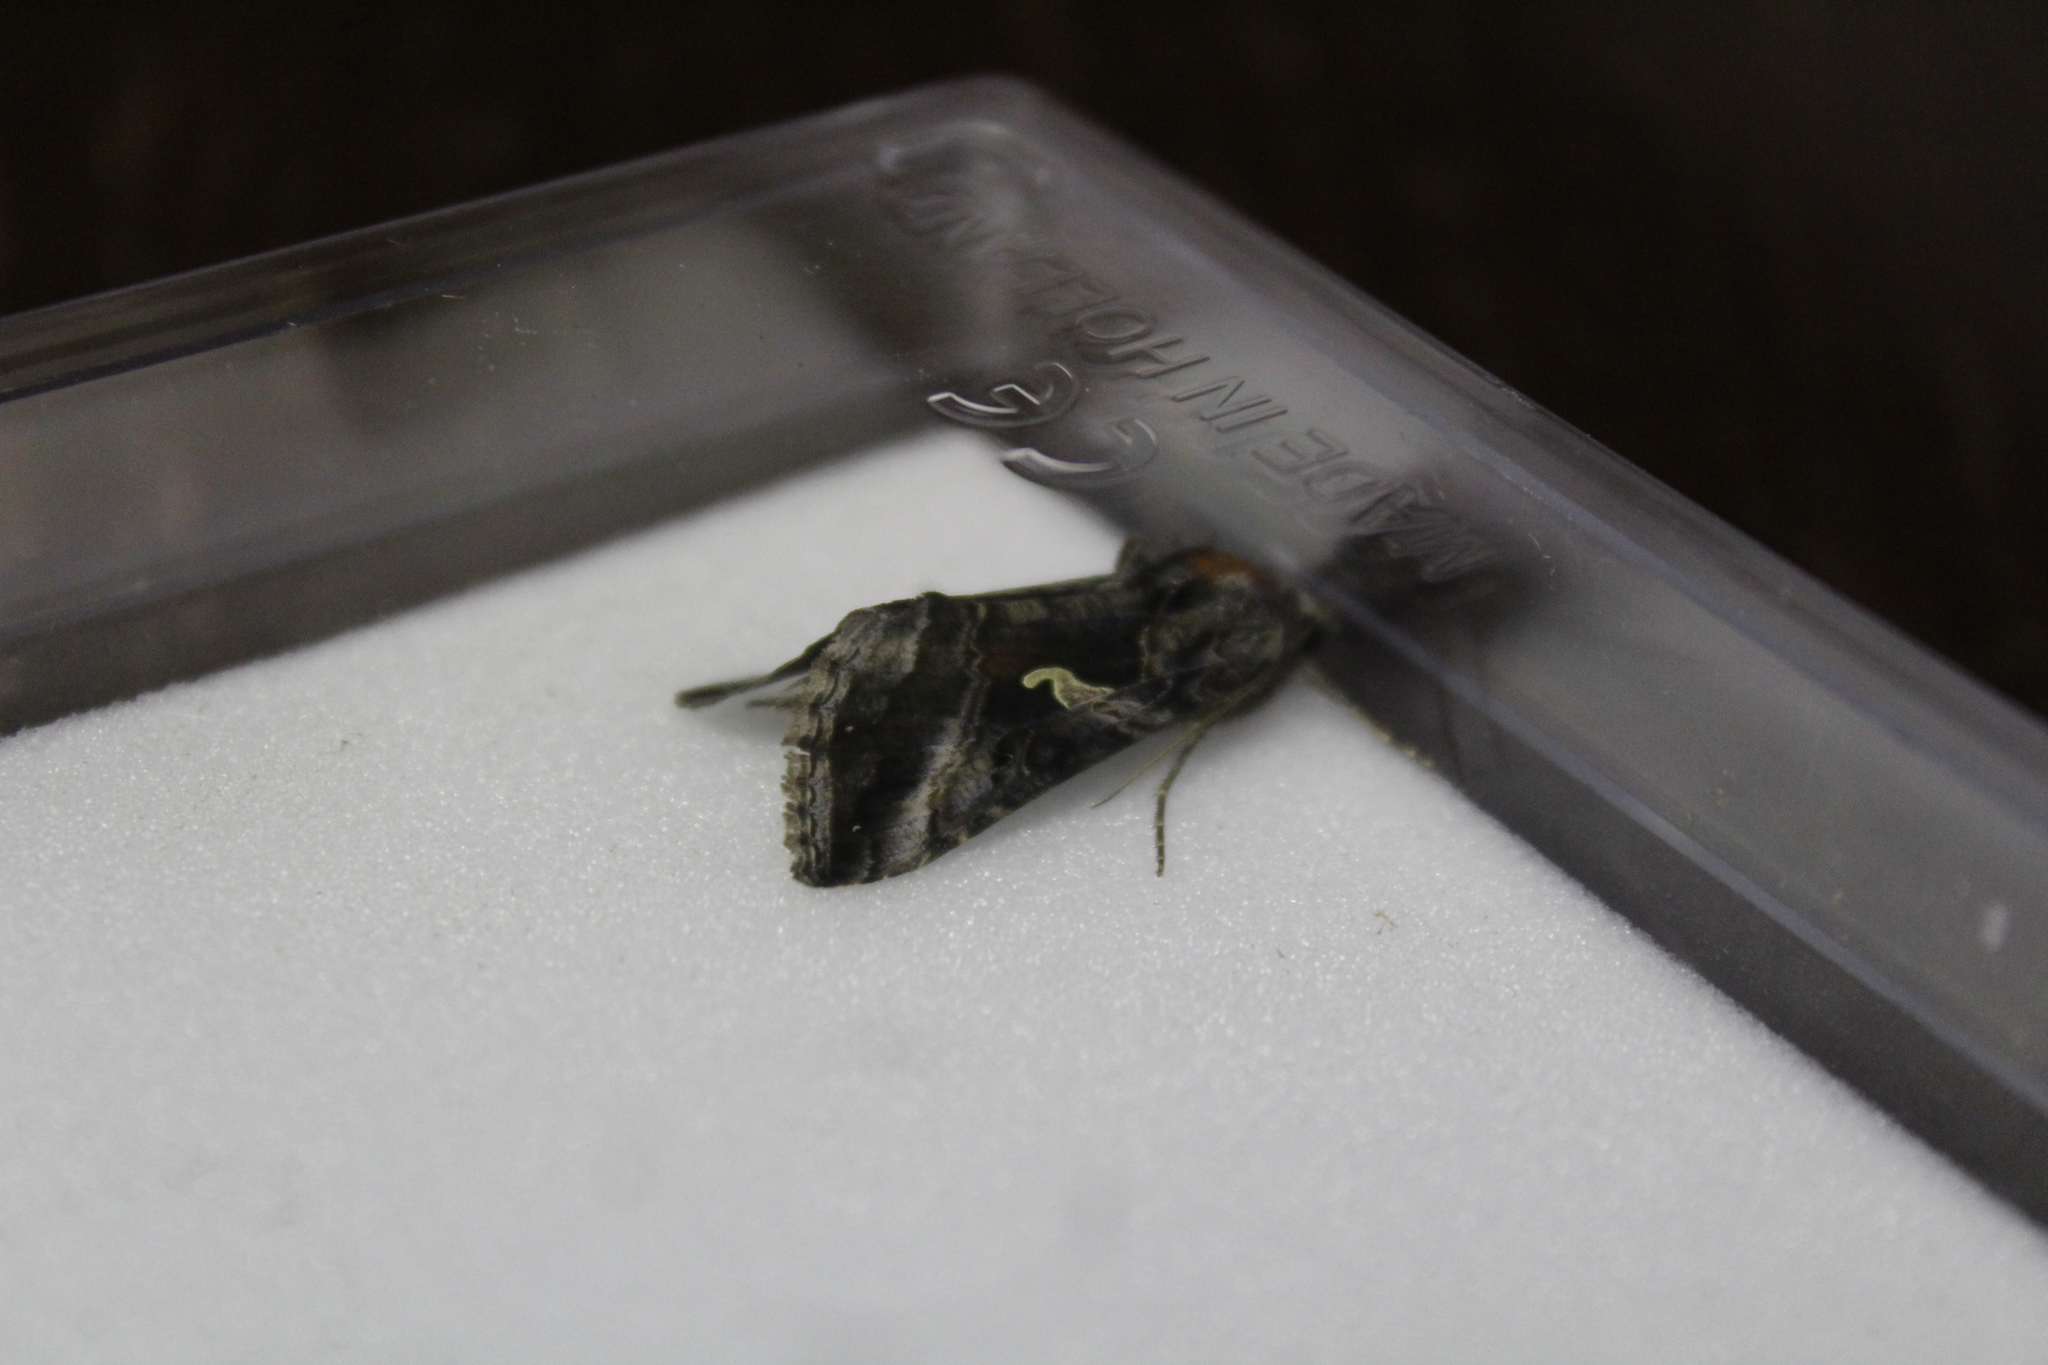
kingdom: Animalia
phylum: Arthropoda
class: Insecta
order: Lepidoptera
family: Noctuidae
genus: Autographa
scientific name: Autographa gamma
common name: Silver y
